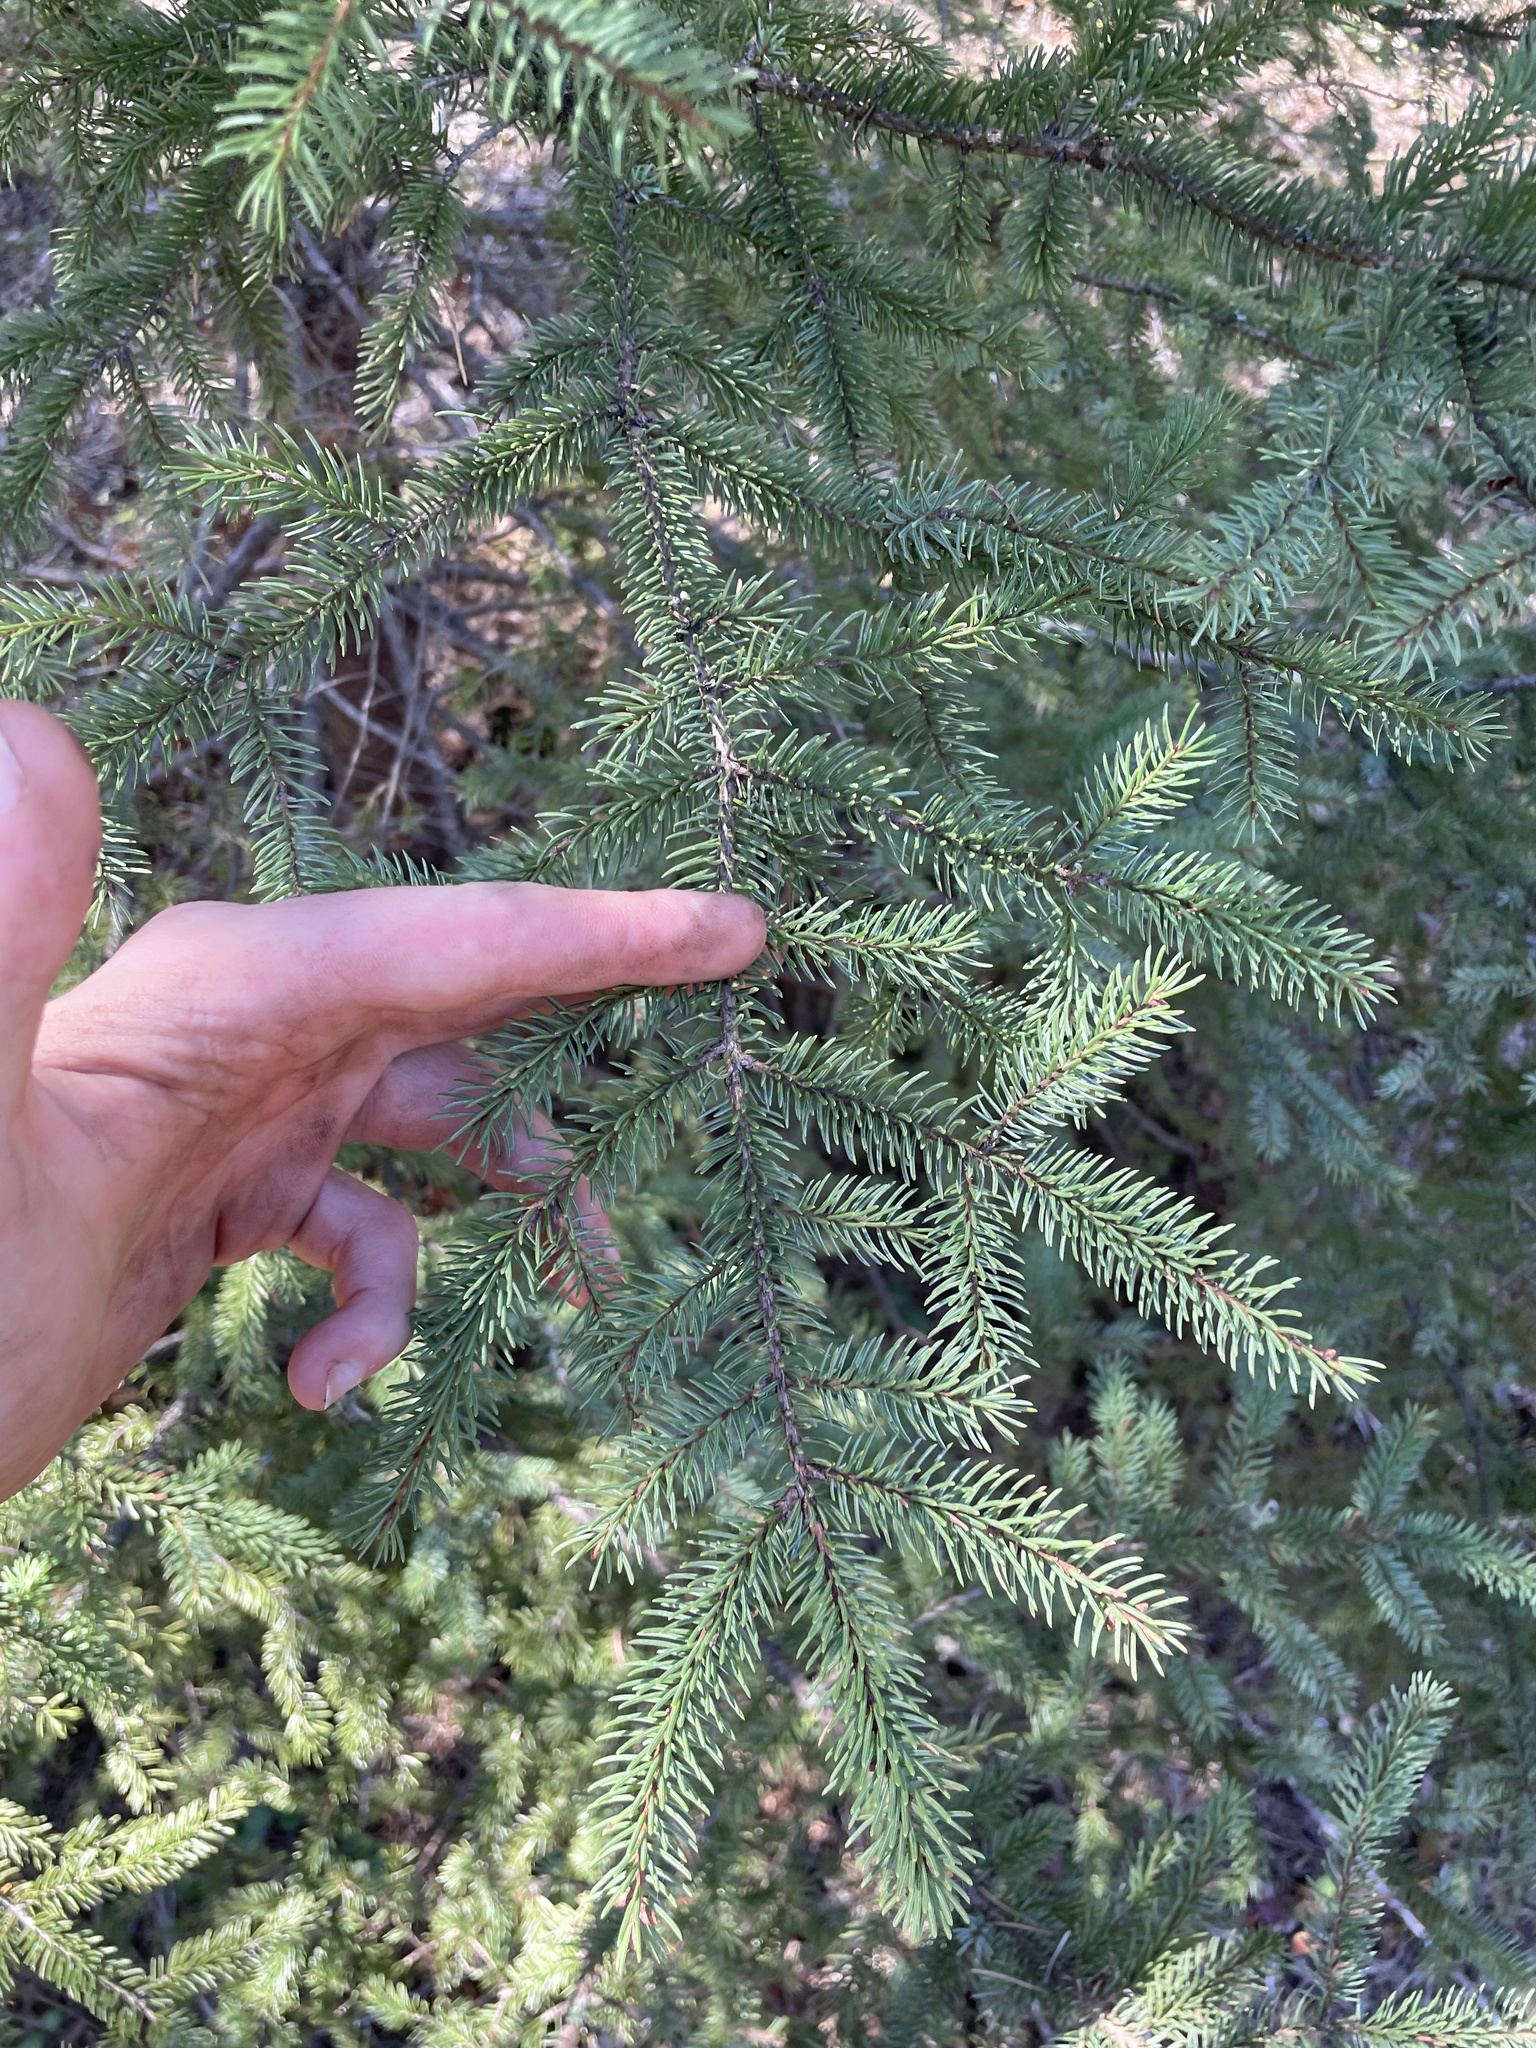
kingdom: Plantae
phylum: Tracheophyta
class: Pinopsida
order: Pinales
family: Pinaceae
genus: Picea
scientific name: Picea mariana
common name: Black spruce
